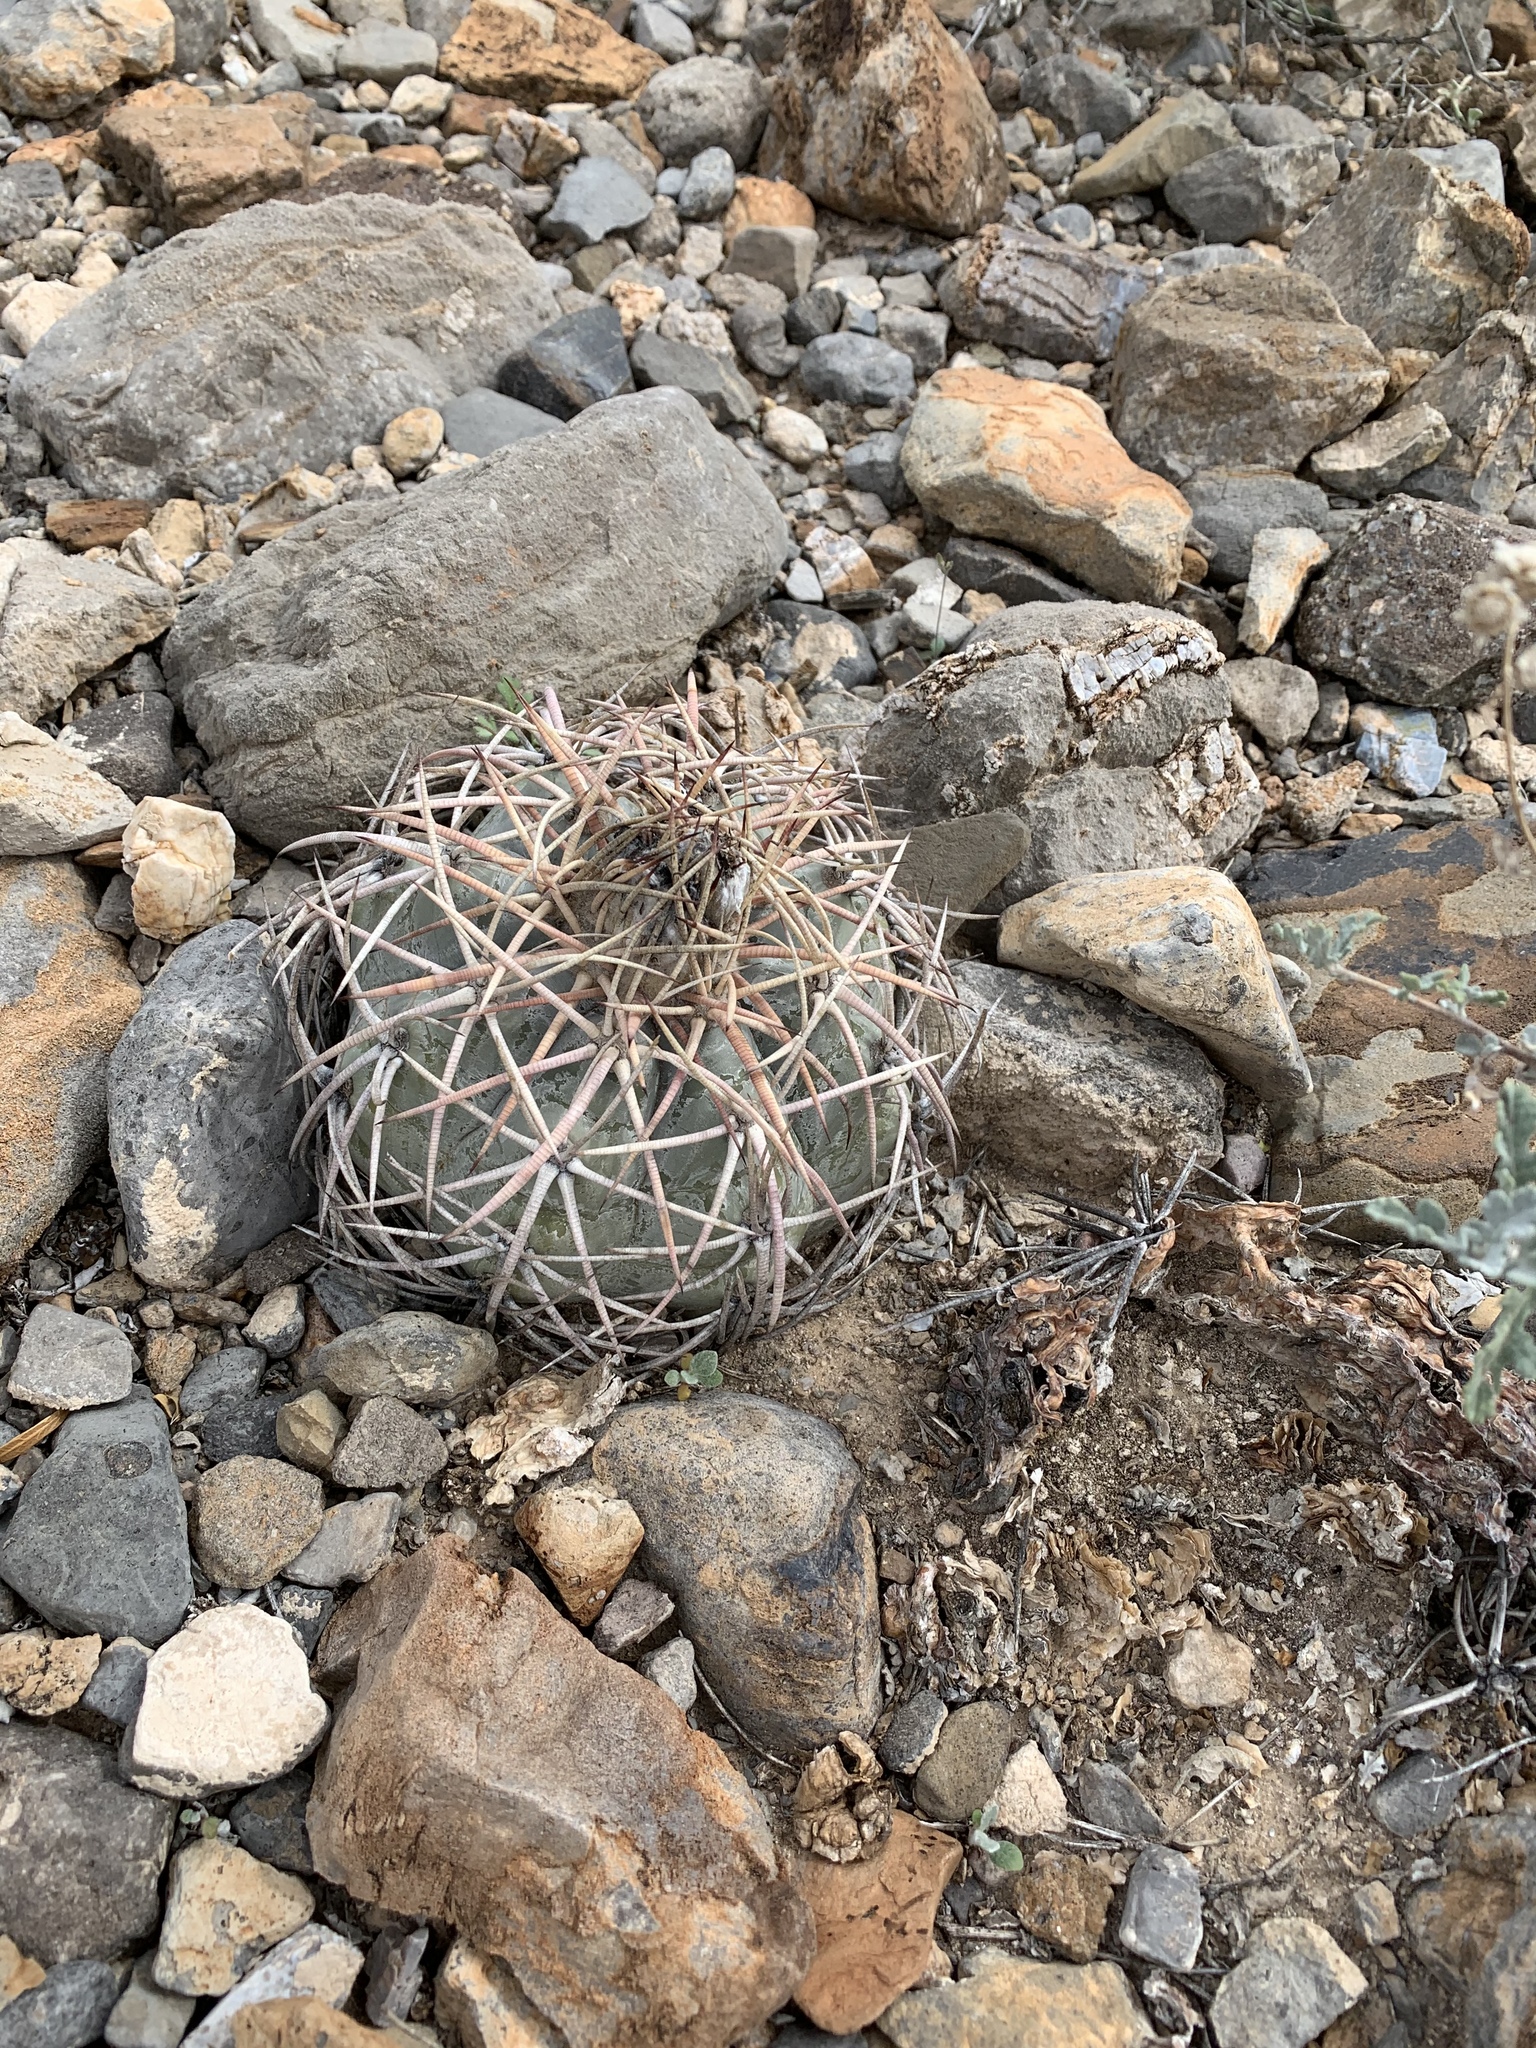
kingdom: Plantae
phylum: Tracheophyta
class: Magnoliopsida
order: Caryophyllales
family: Cactaceae
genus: Echinocactus
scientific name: Echinocactus horizonthalonius
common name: Devilshead
